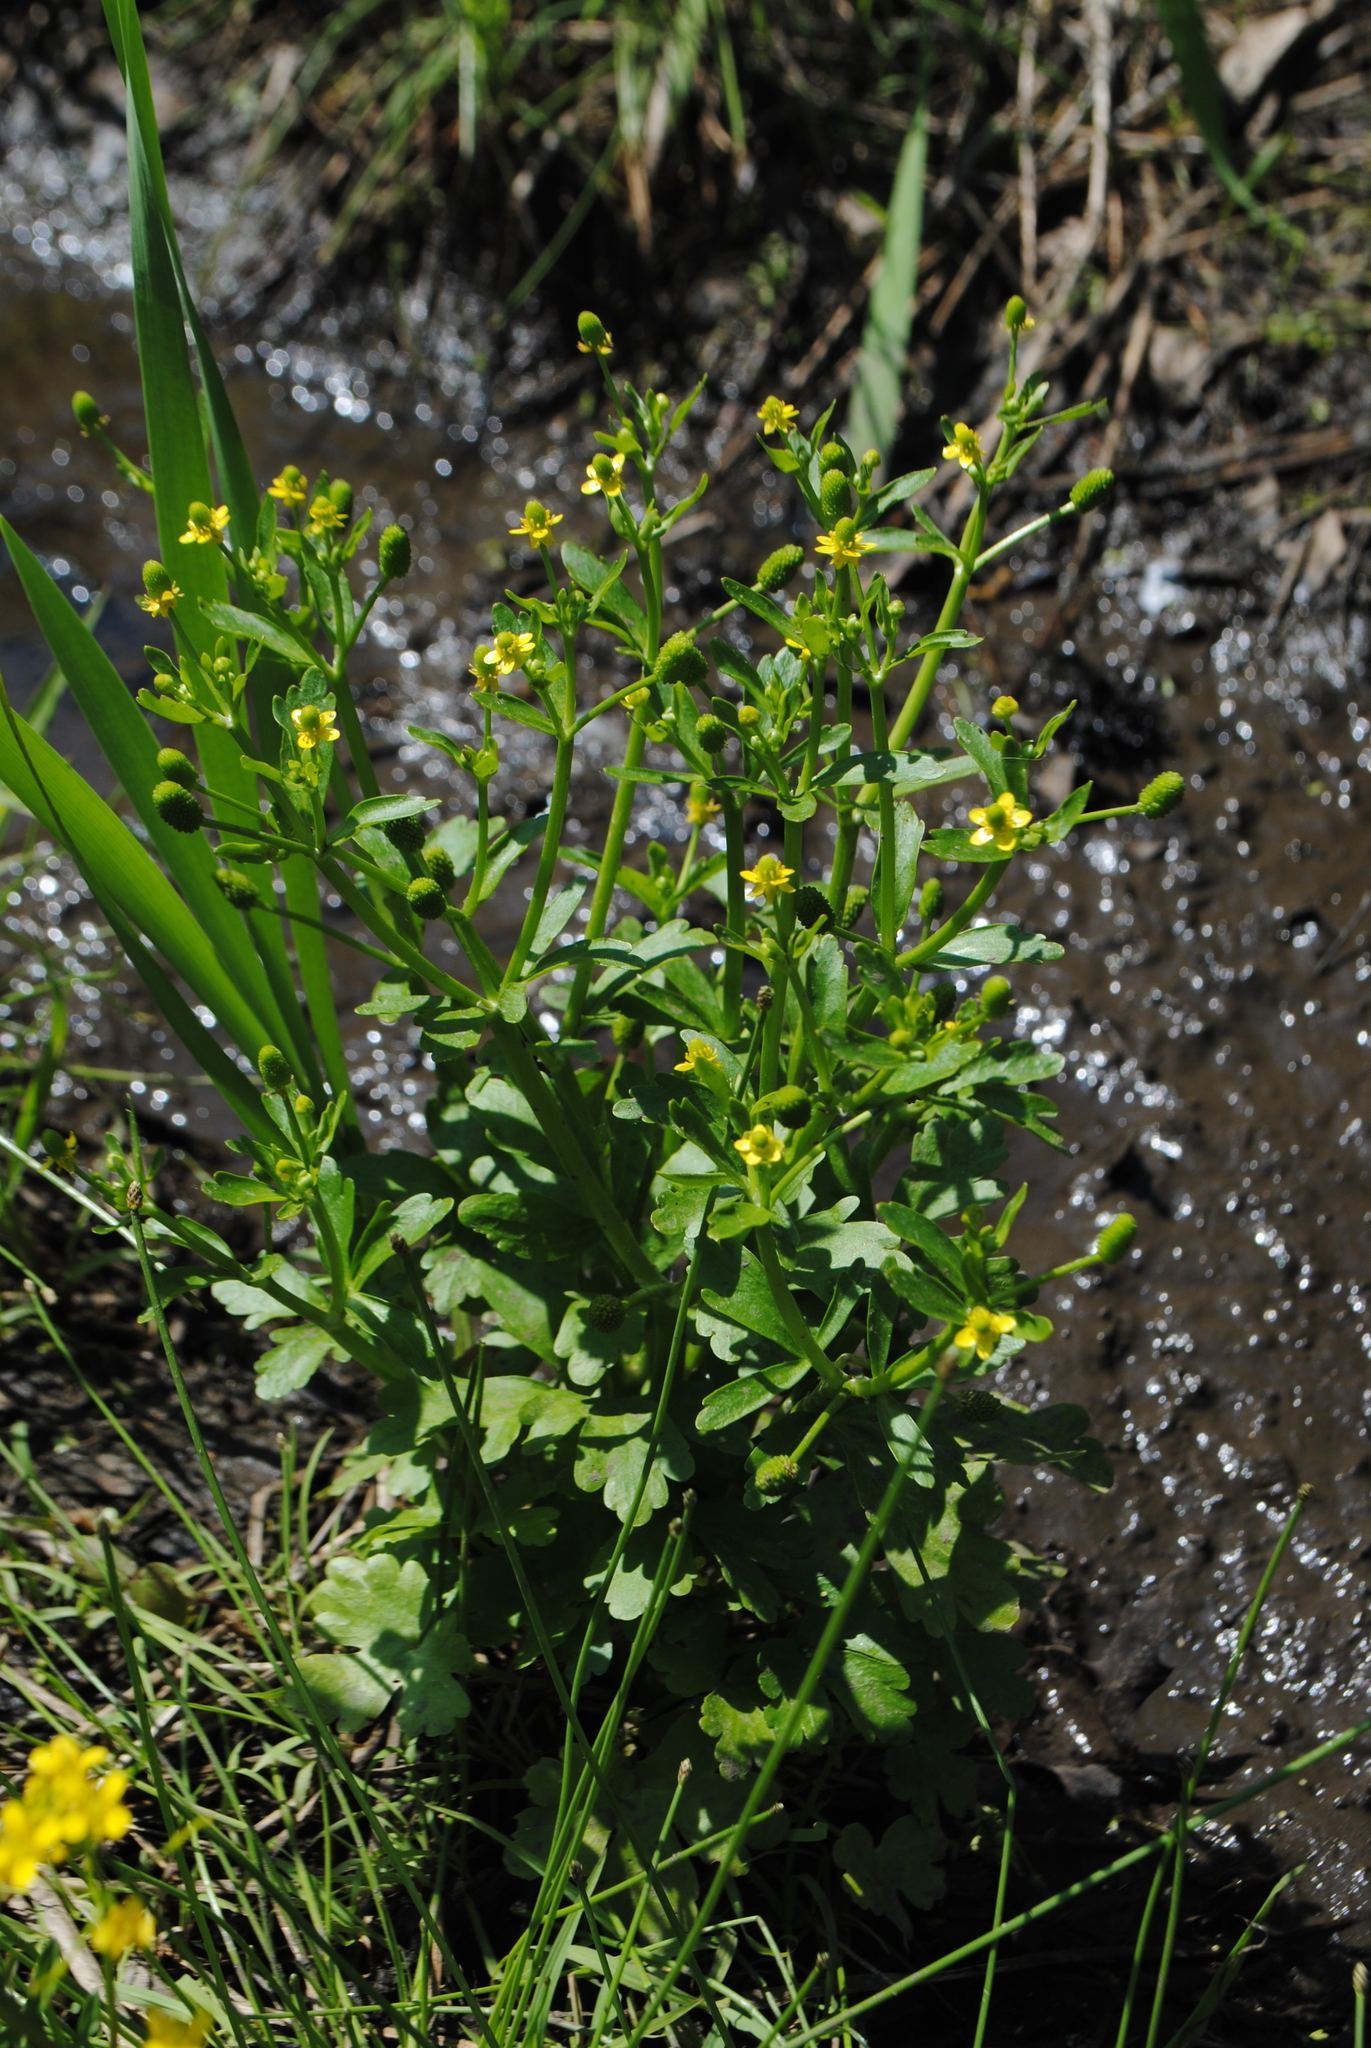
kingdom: Plantae
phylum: Tracheophyta
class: Magnoliopsida
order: Ranunculales
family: Ranunculaceae
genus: Ranunculus
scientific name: Ranunculus sceleratus
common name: Celery-leaved buttercup
